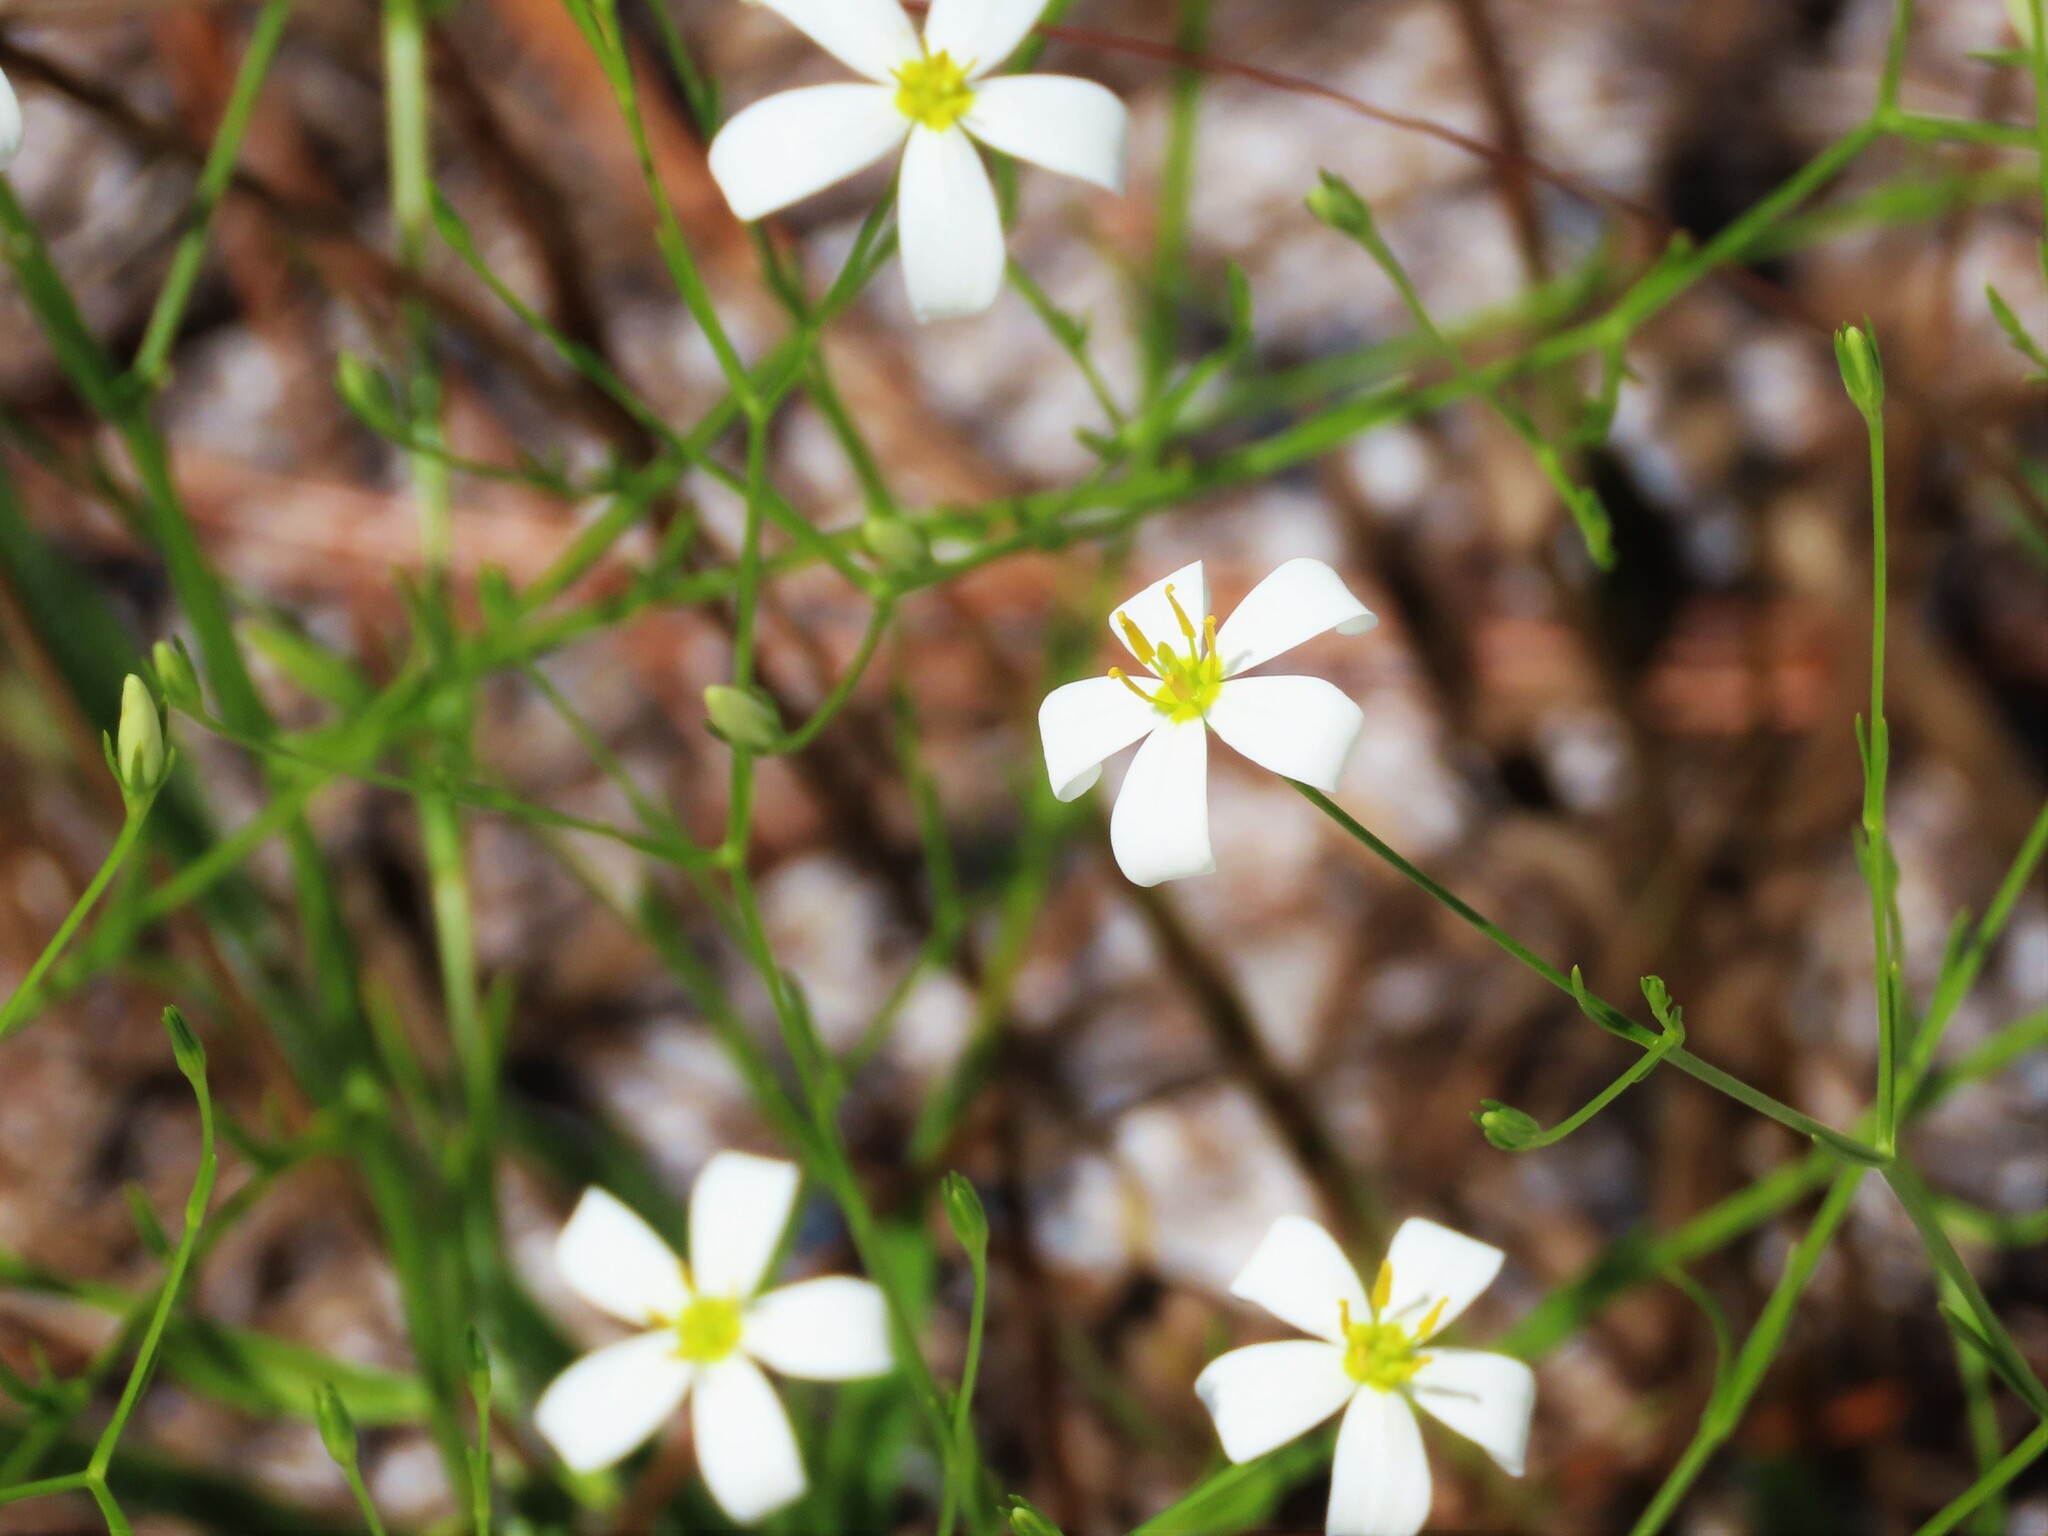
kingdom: Plantae
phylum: Tracheophyta
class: Magnoliopsida
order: Gentianales
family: Gentianaceae
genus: Sabatia
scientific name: Sabatia brevifolia
